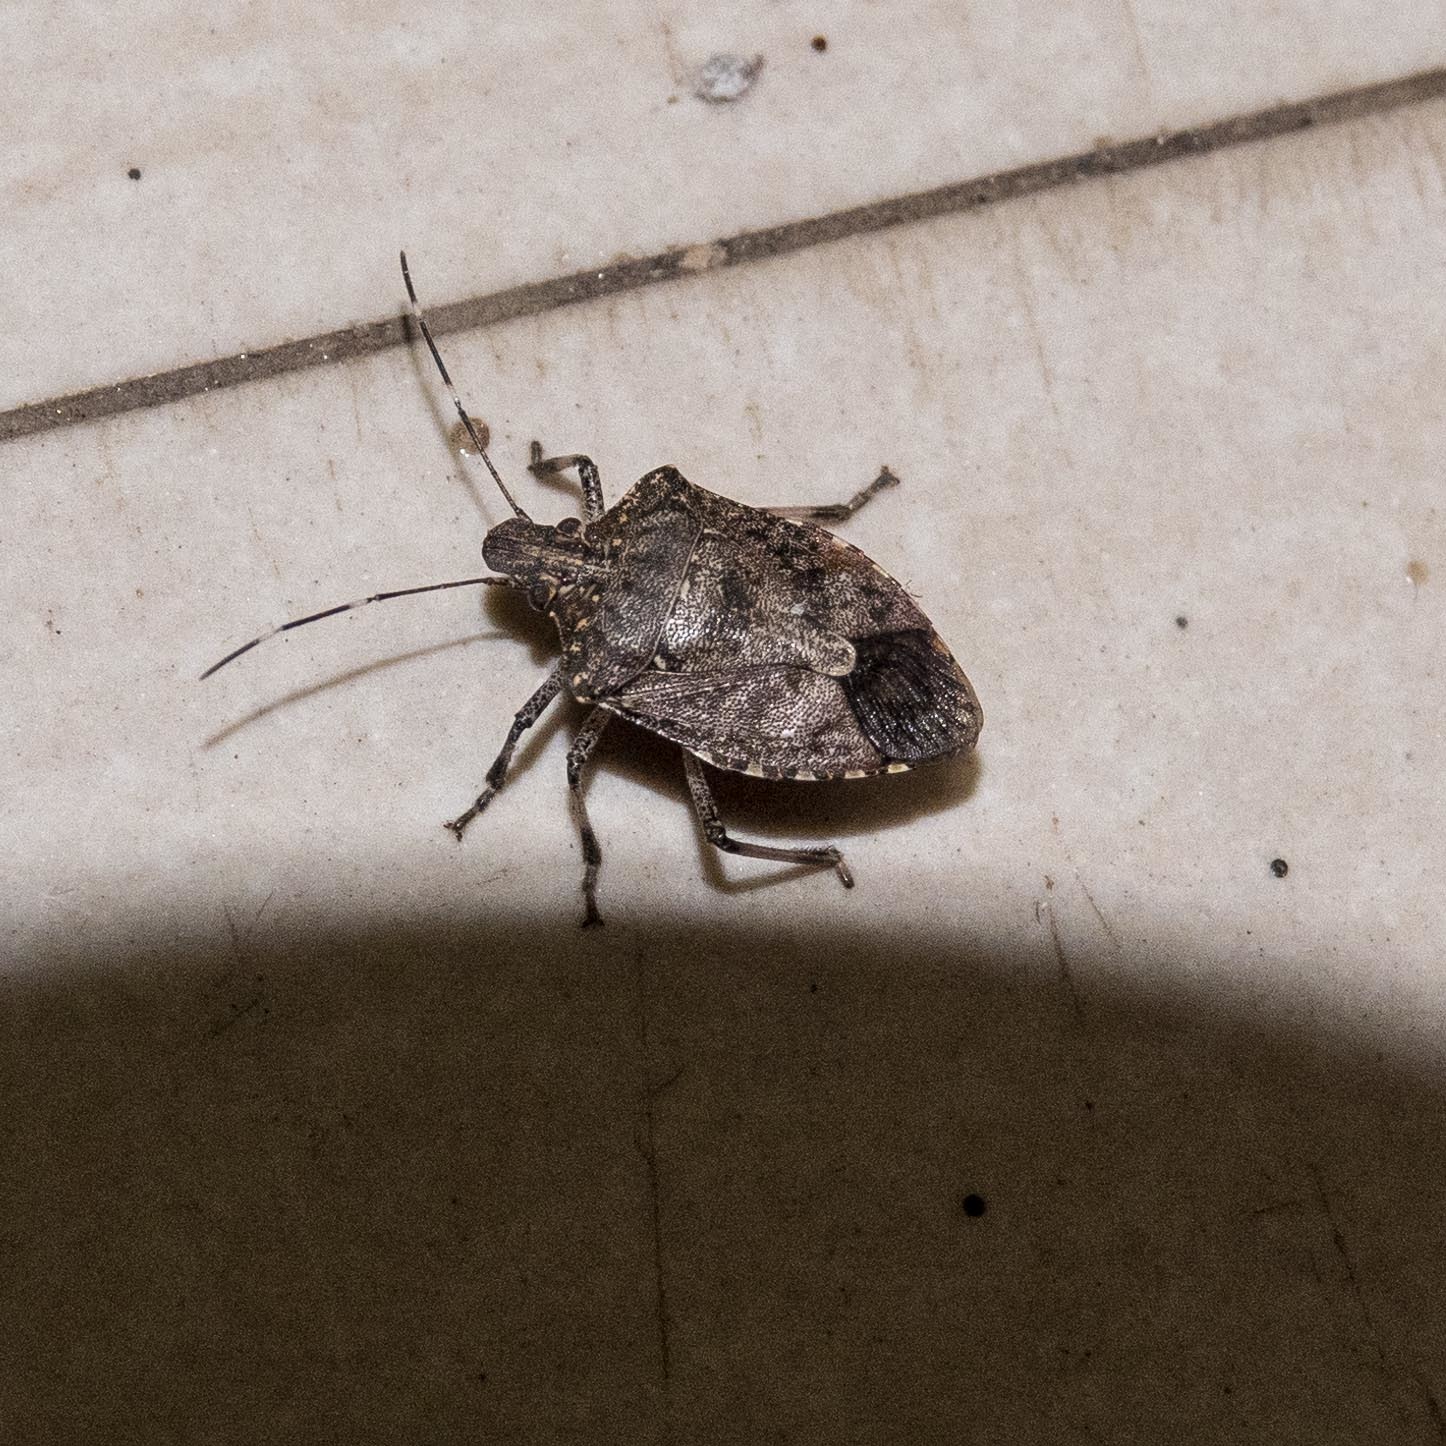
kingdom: Animalia
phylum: Arthropoda
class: Insecta
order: Hemiptera
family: Pentatomidae
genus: Halyomorpha
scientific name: Halyomorpha picus
